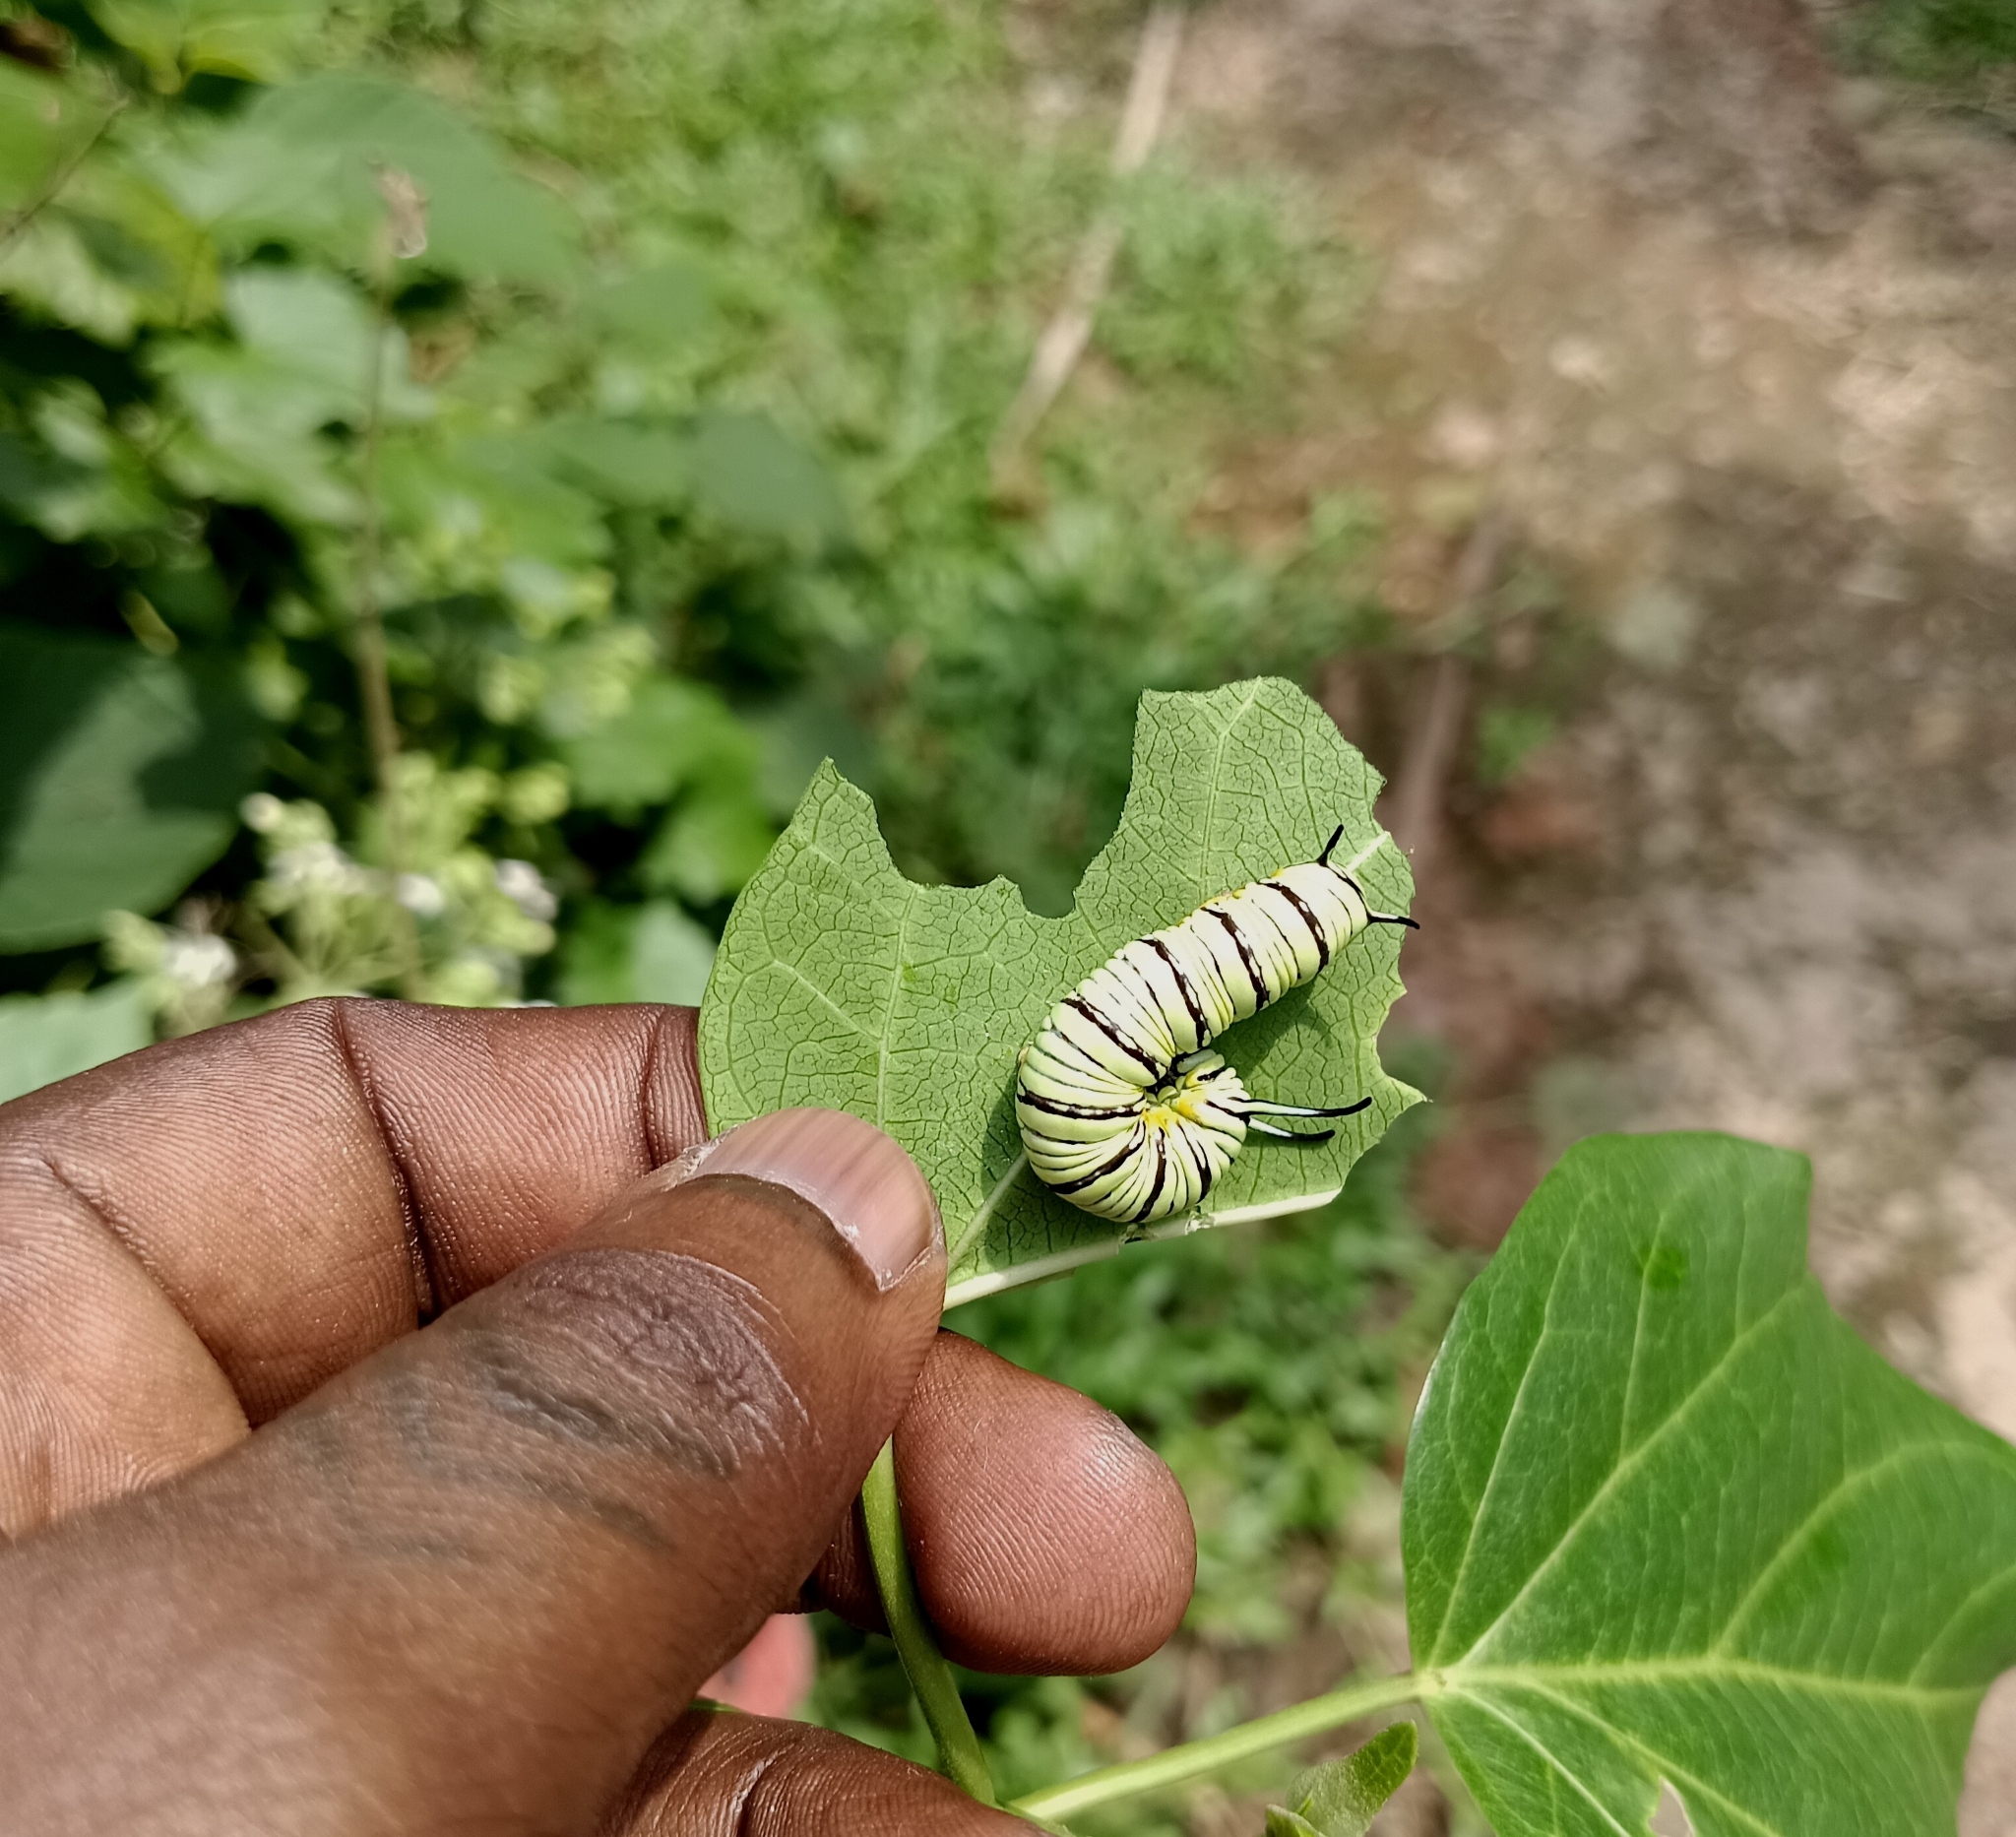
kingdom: Animalia
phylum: Arthropoda
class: Insecta
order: Lepidoptera
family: Nymphalidae
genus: Tirumala
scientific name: Tirumala limniace
